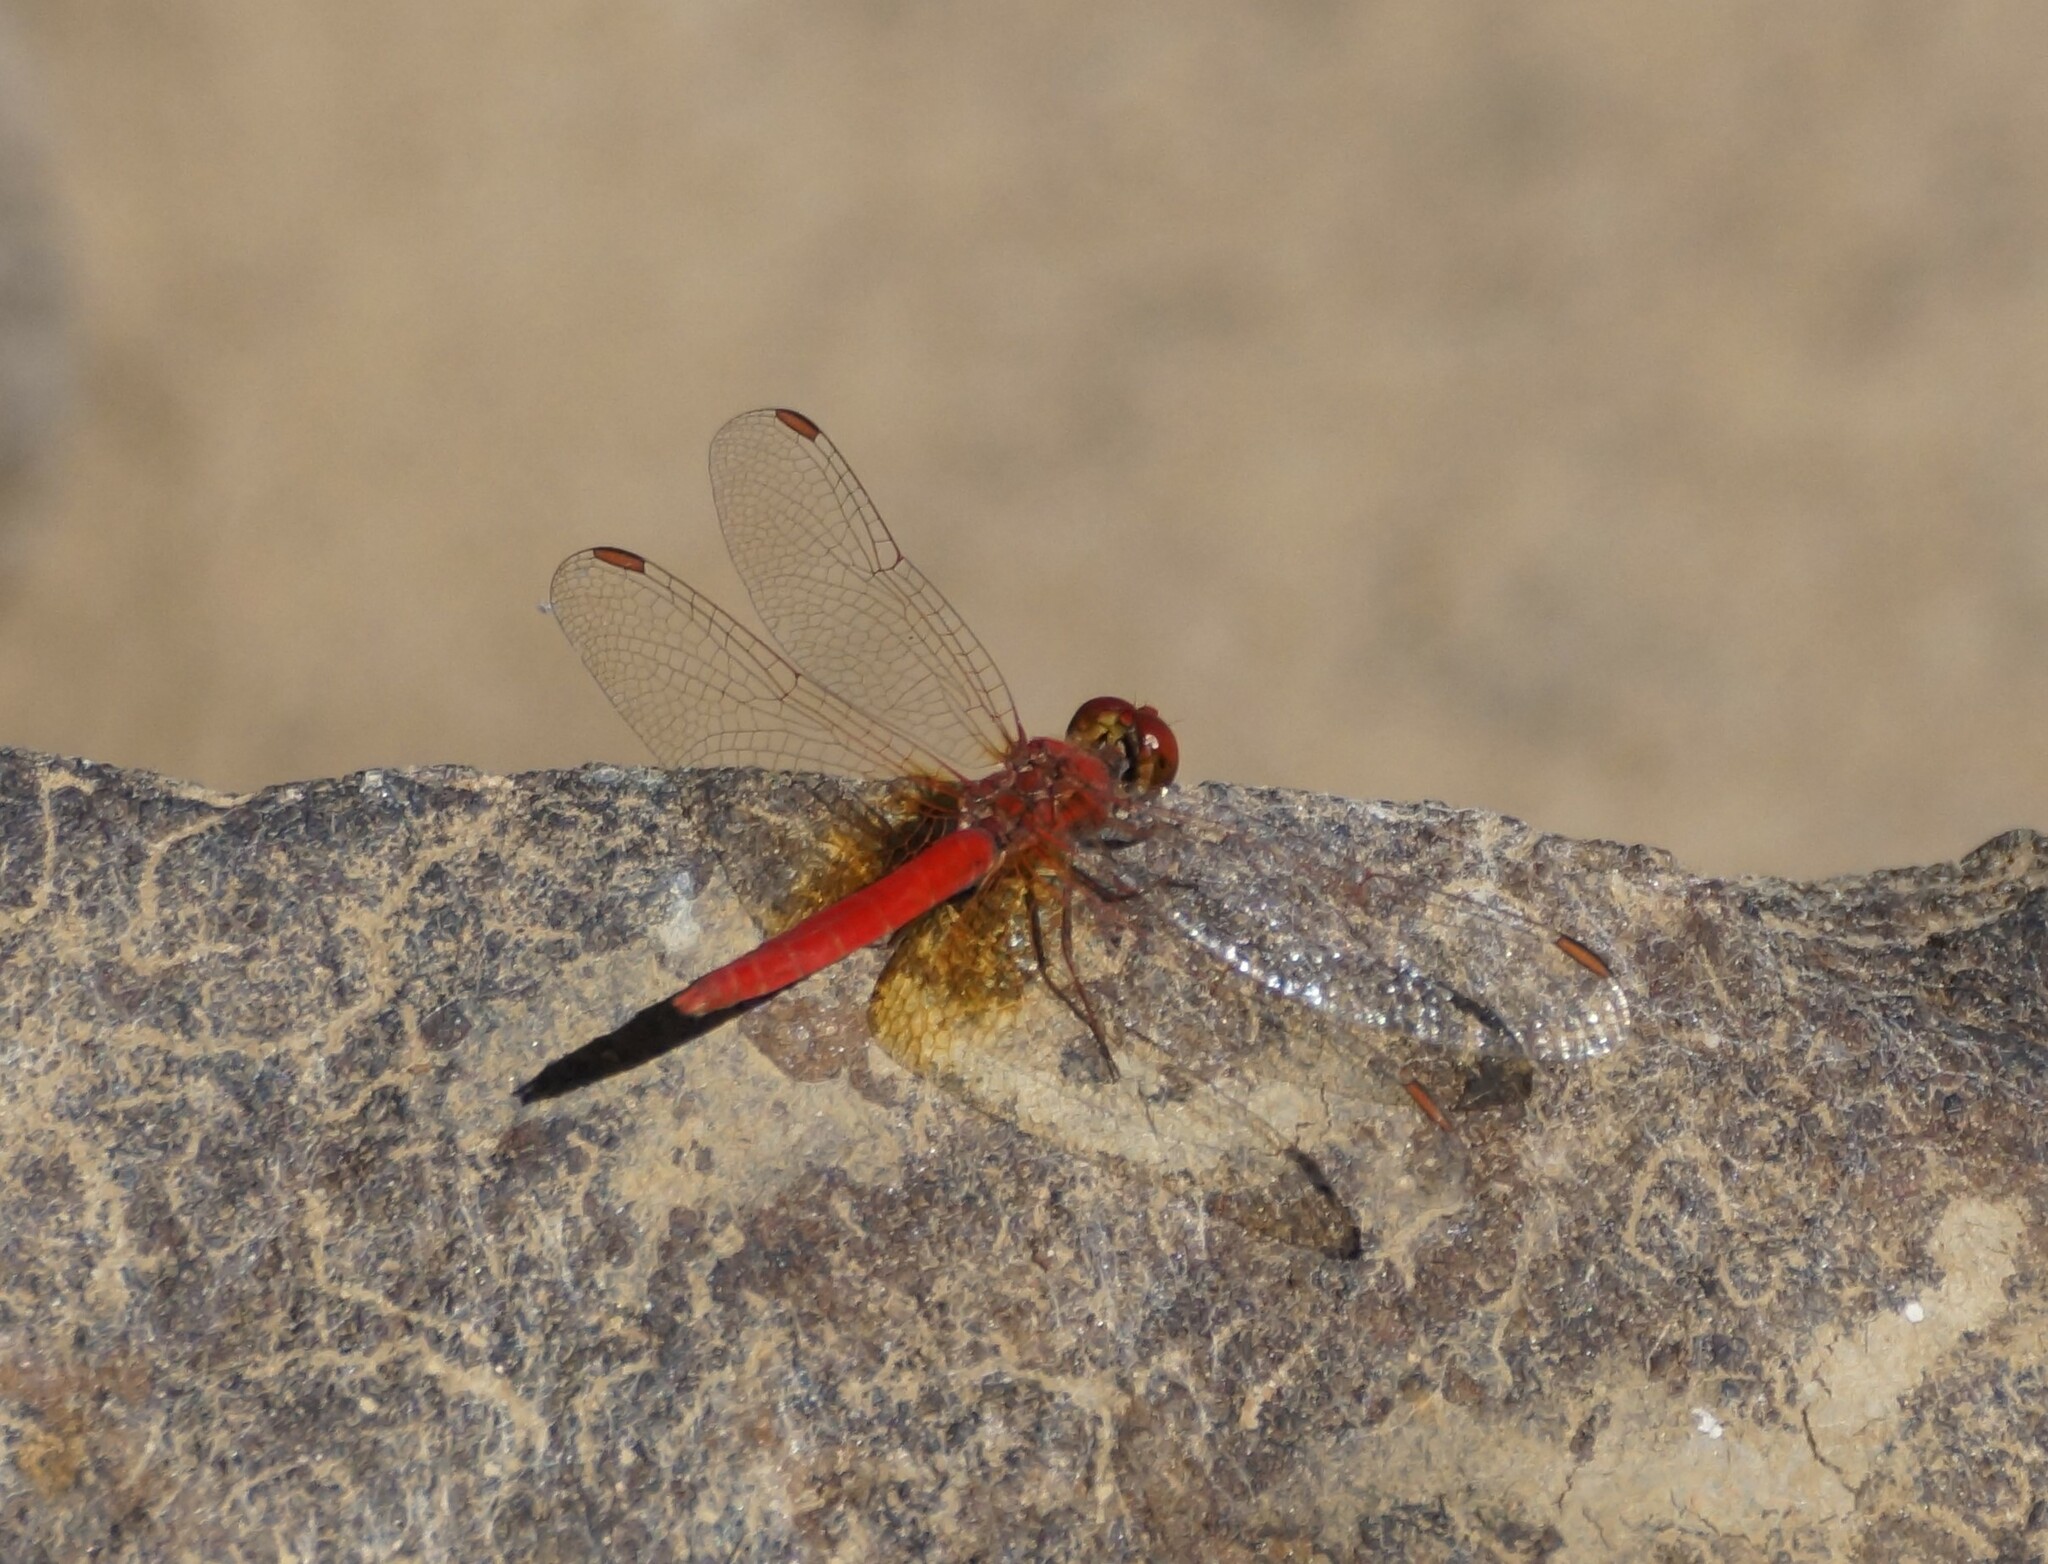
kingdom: Animalia
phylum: Arthropoda
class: Insecta
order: Odonata
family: Libellulidae
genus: Diplacodes
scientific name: Diplacodes haematodes
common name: Scarlet percher
